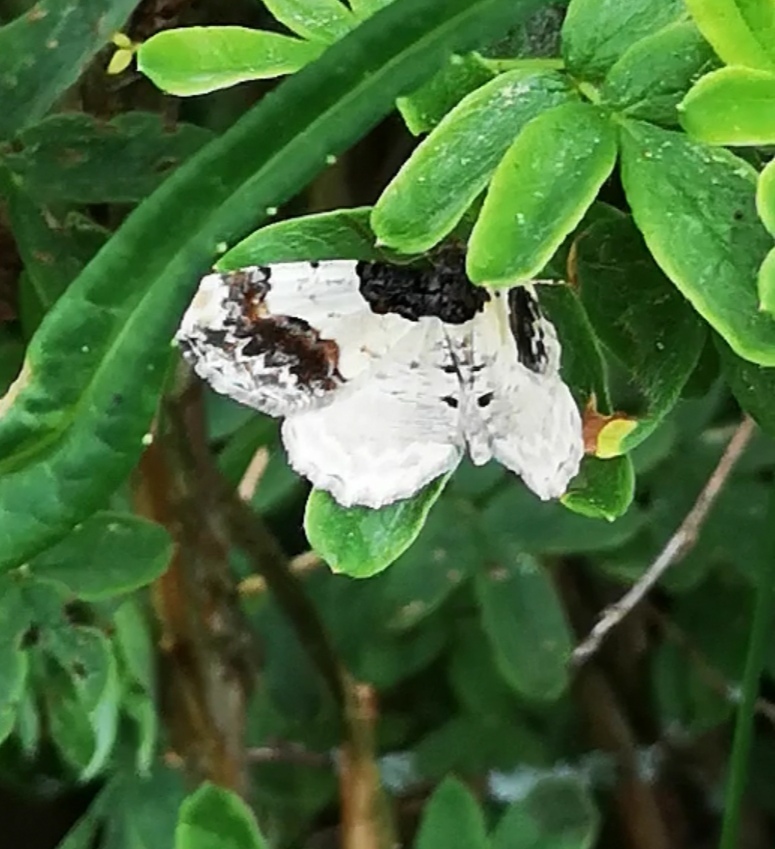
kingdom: Animalia
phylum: Arthropoda
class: Insecta
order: Lepidoptera
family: Geometridae
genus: Ligdia
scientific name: Ligdia adustata
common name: Scorched carpet
